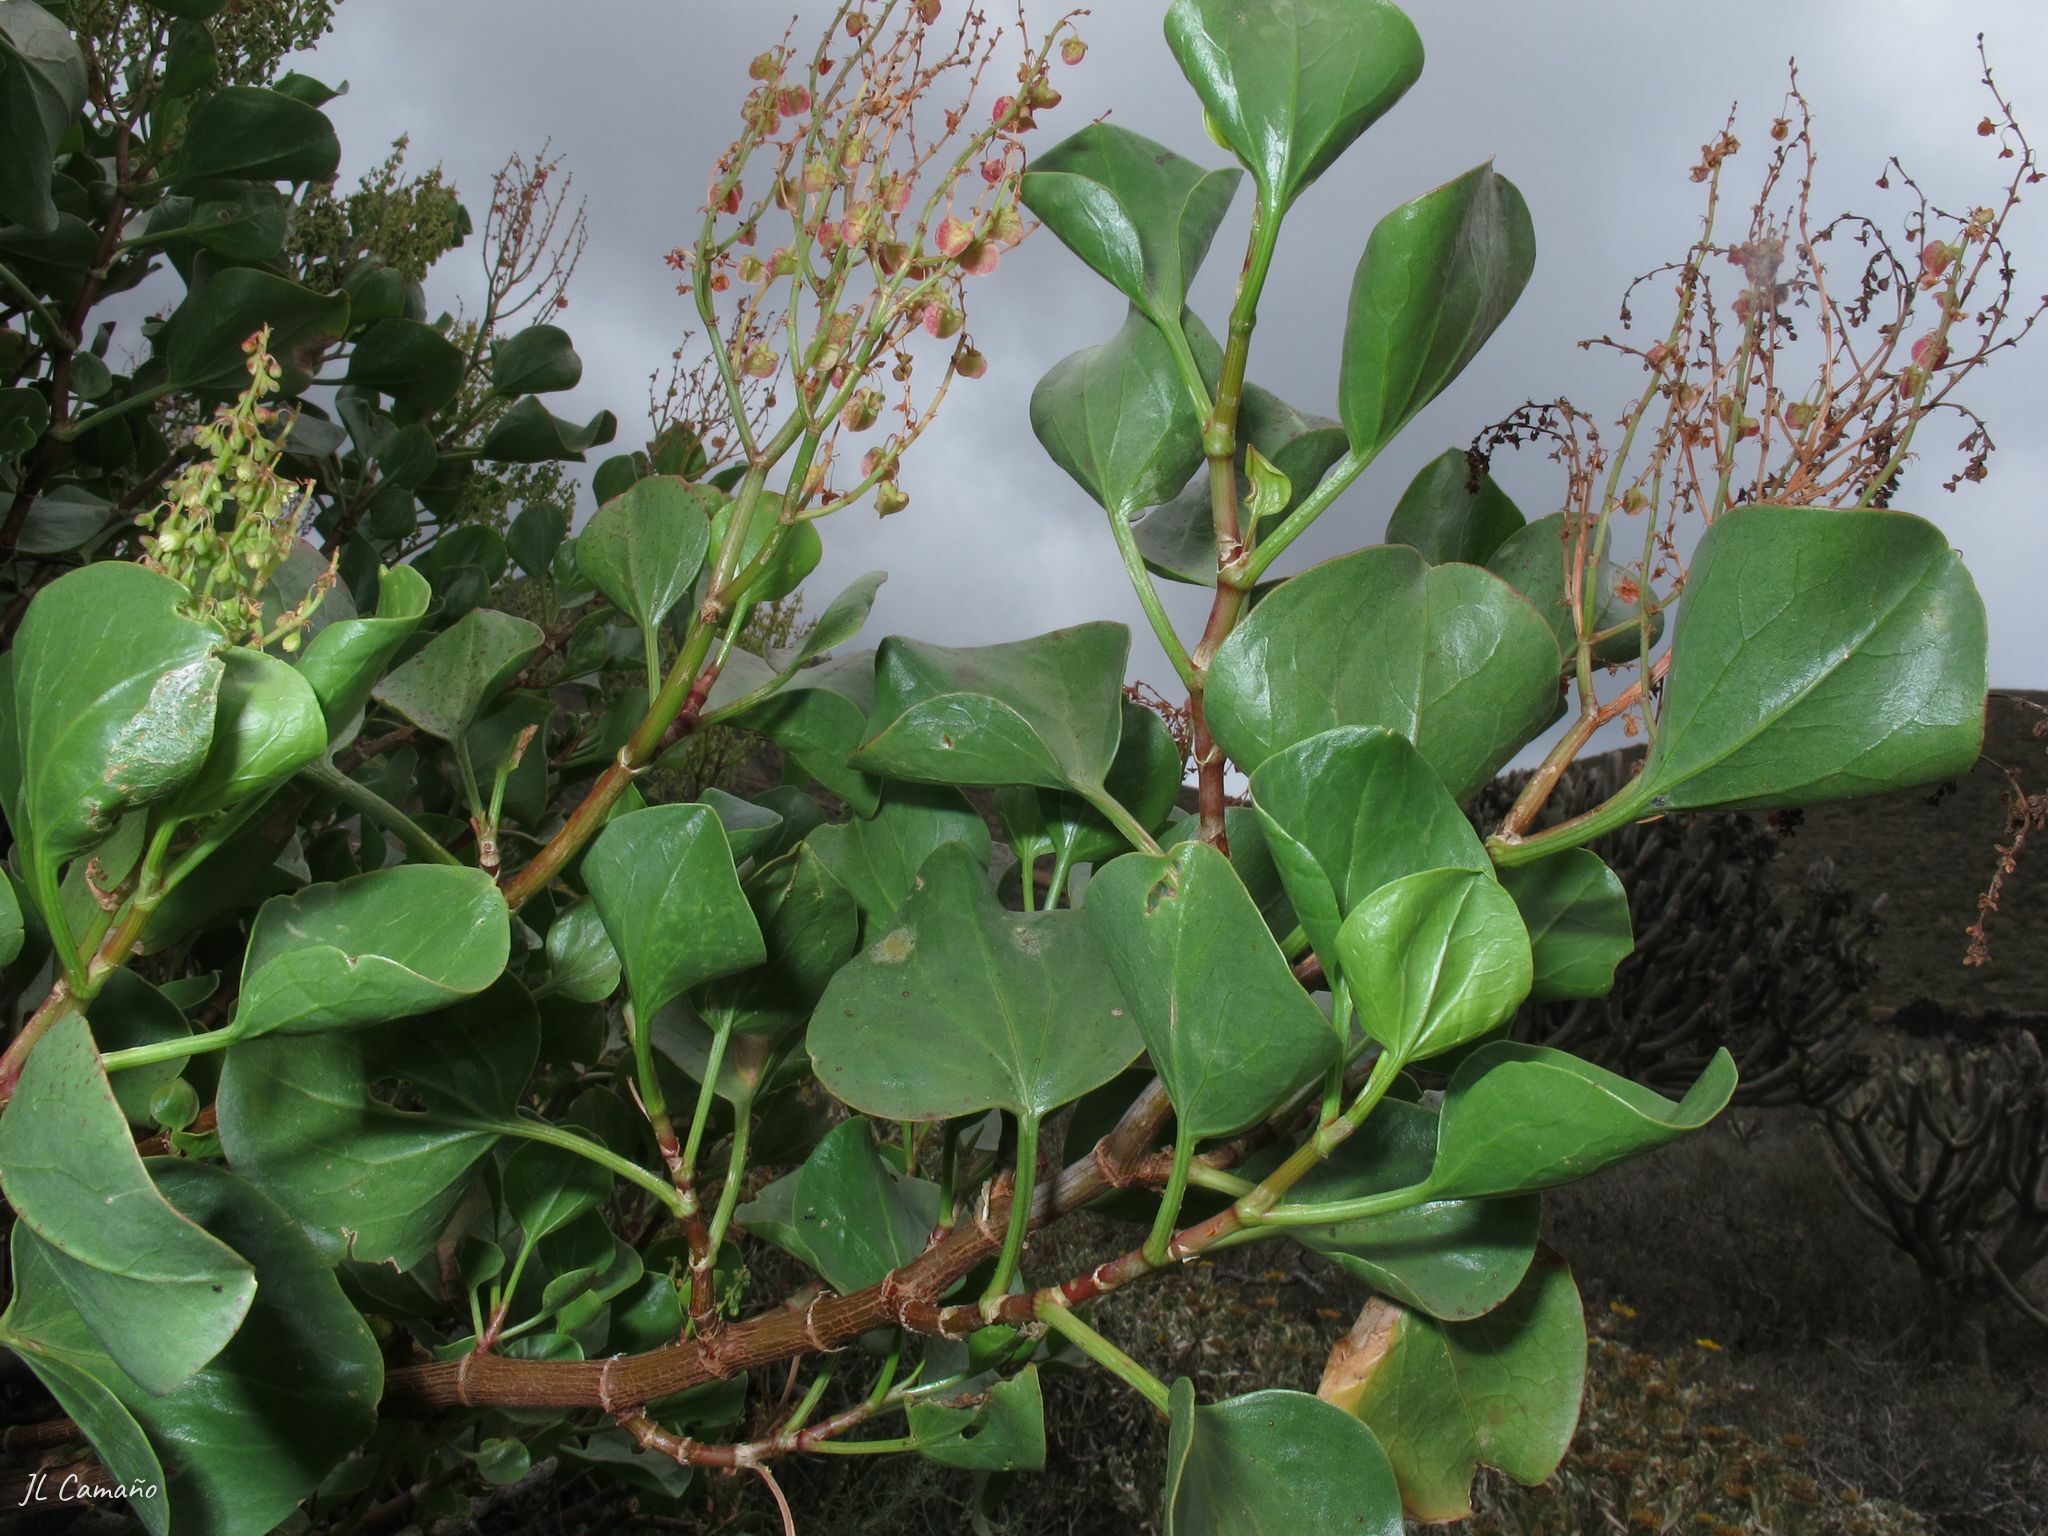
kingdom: Plantae
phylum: Tracheophyta
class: Magnoliopsida
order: Caryophyllales
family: Polygonaceae
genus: Rumex
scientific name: Rumex lunaria
